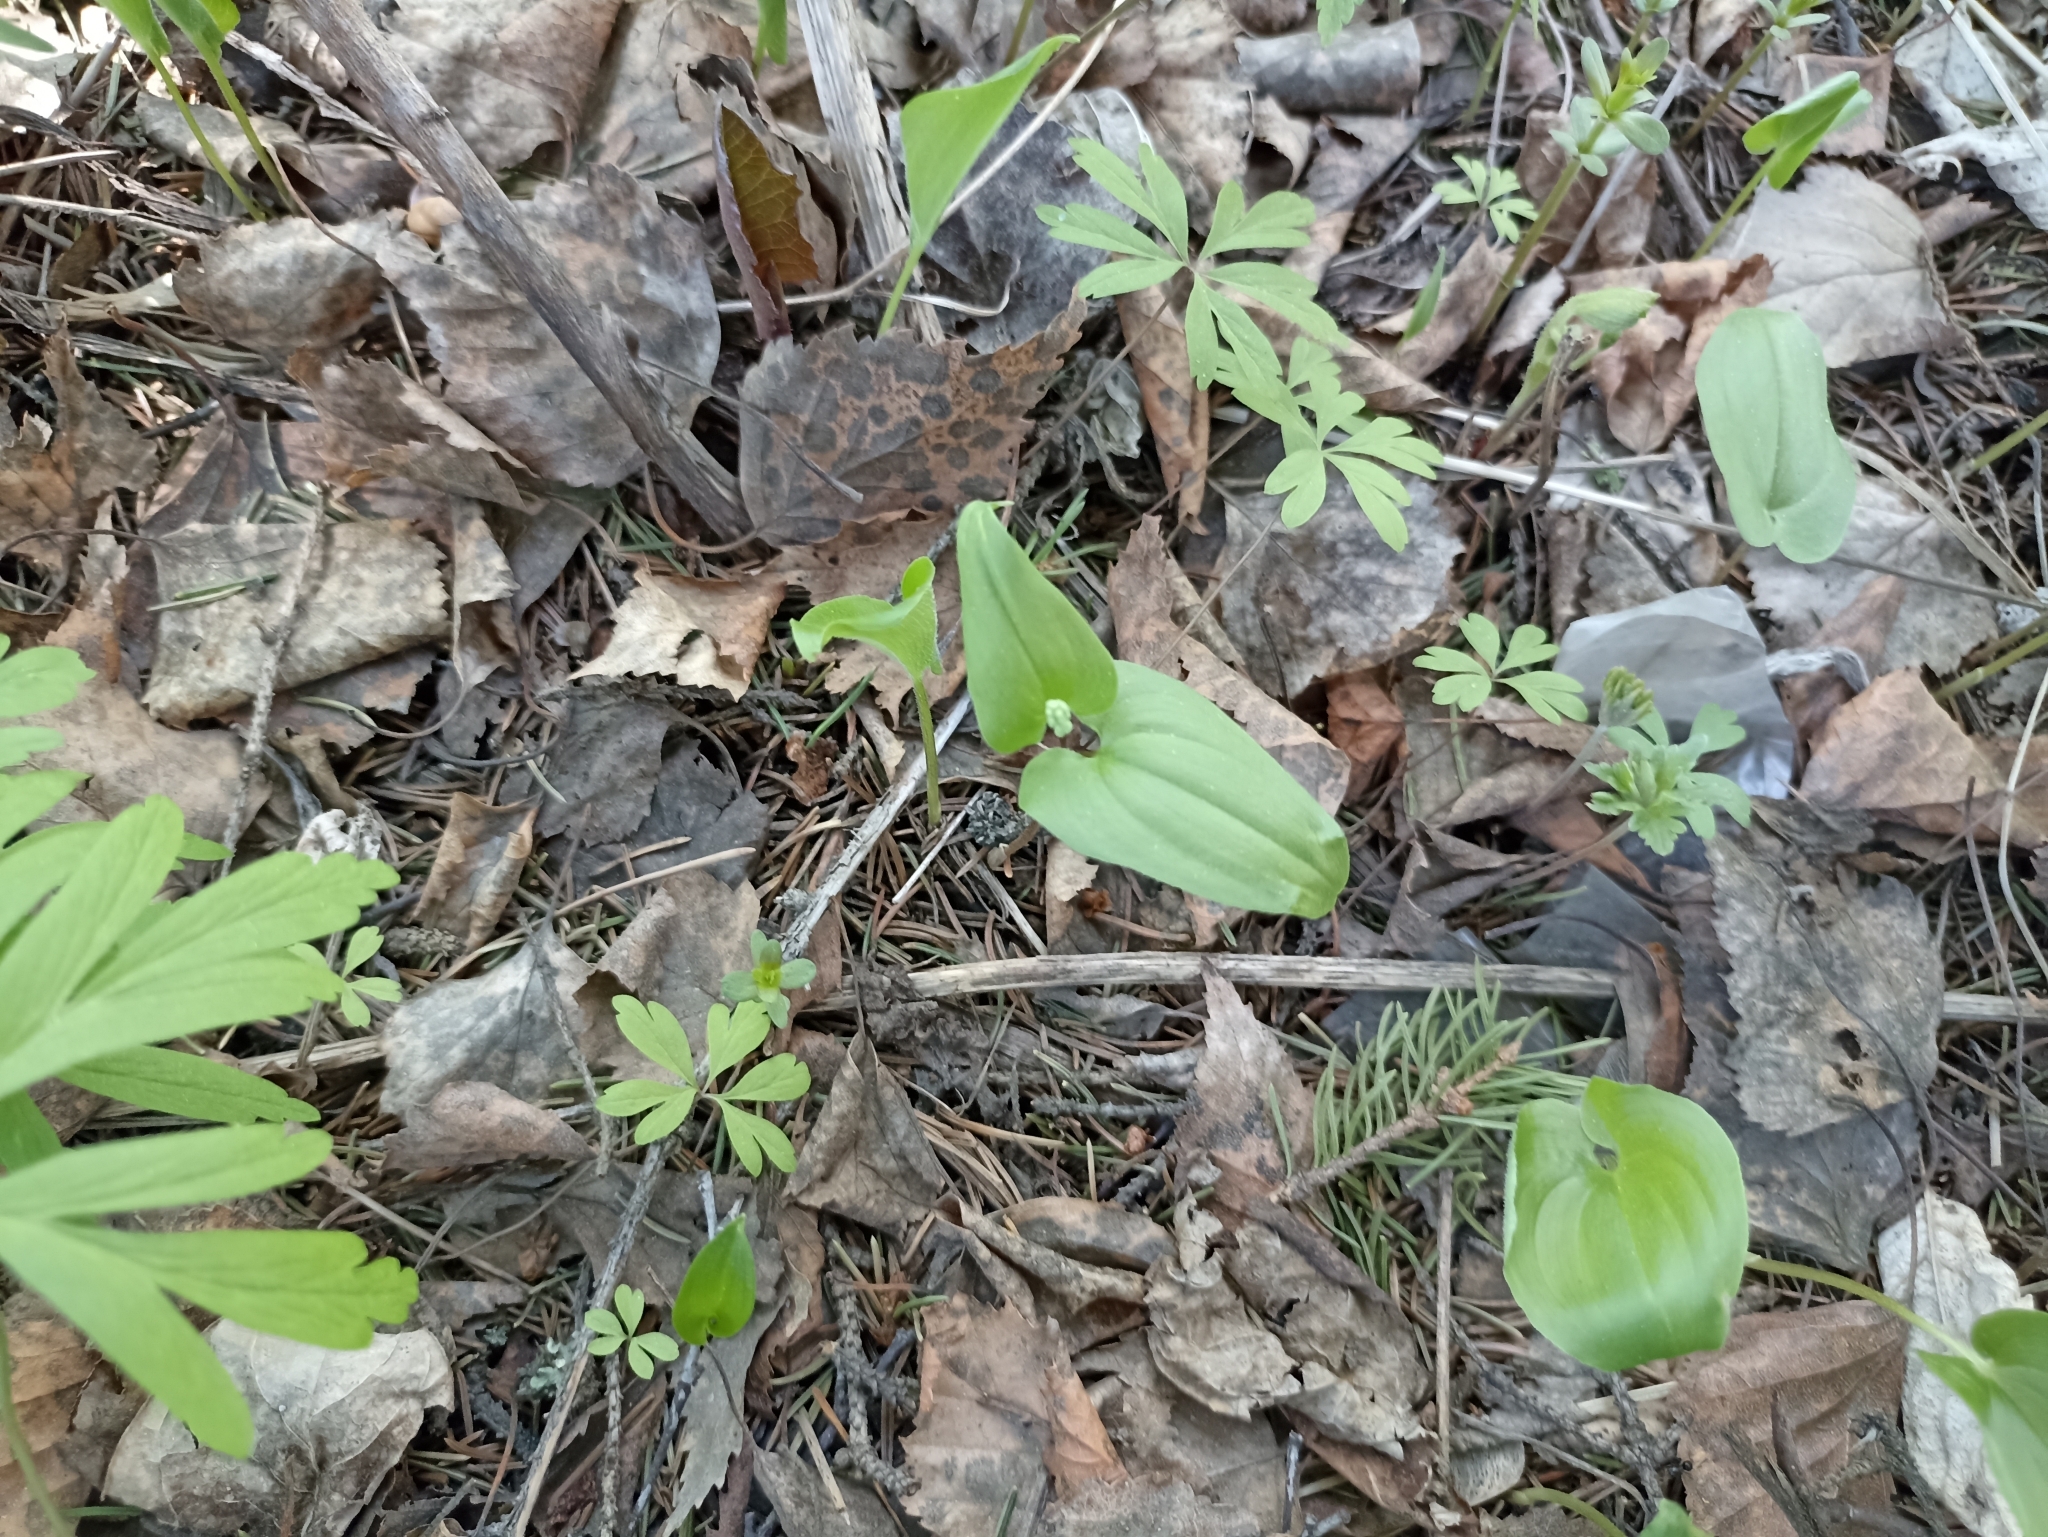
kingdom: Plantae
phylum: Tracheophyta
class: Liliopsida
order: Asparagales
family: Asparagaceae
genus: Maianthemum
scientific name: Maianthemum bifolium
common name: May lily
